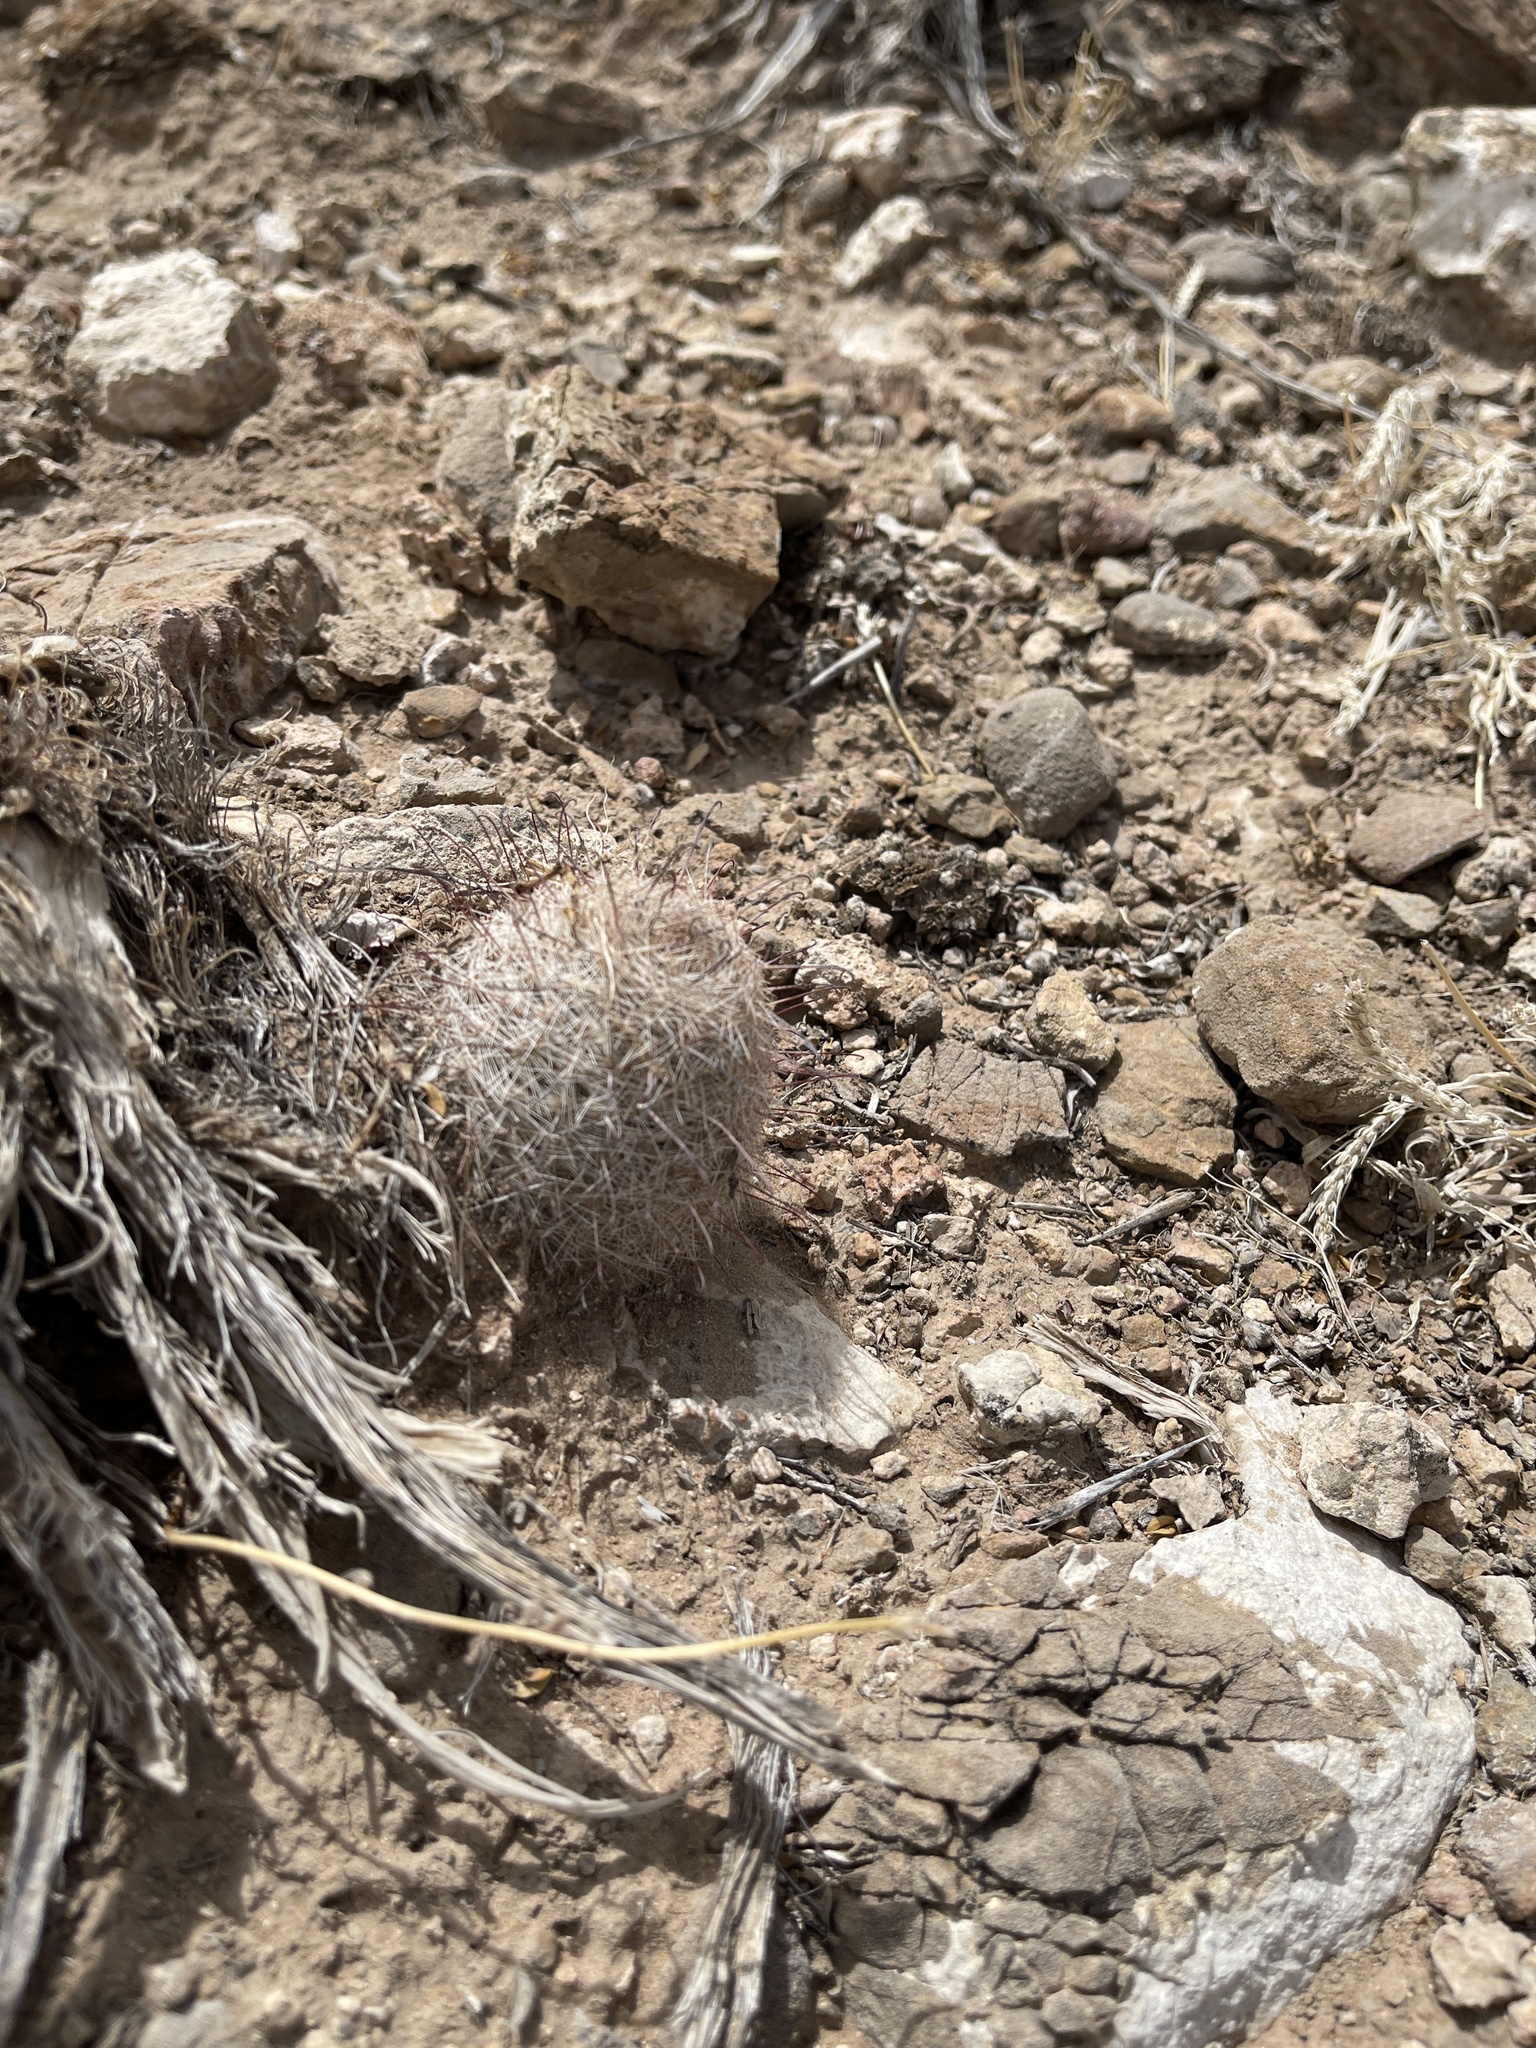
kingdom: Plantae
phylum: Tracheophyta
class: Magnoliopsida
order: Caryophyllales
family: Cactaceae
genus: Cochemiea
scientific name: Cochemiea grahamii
